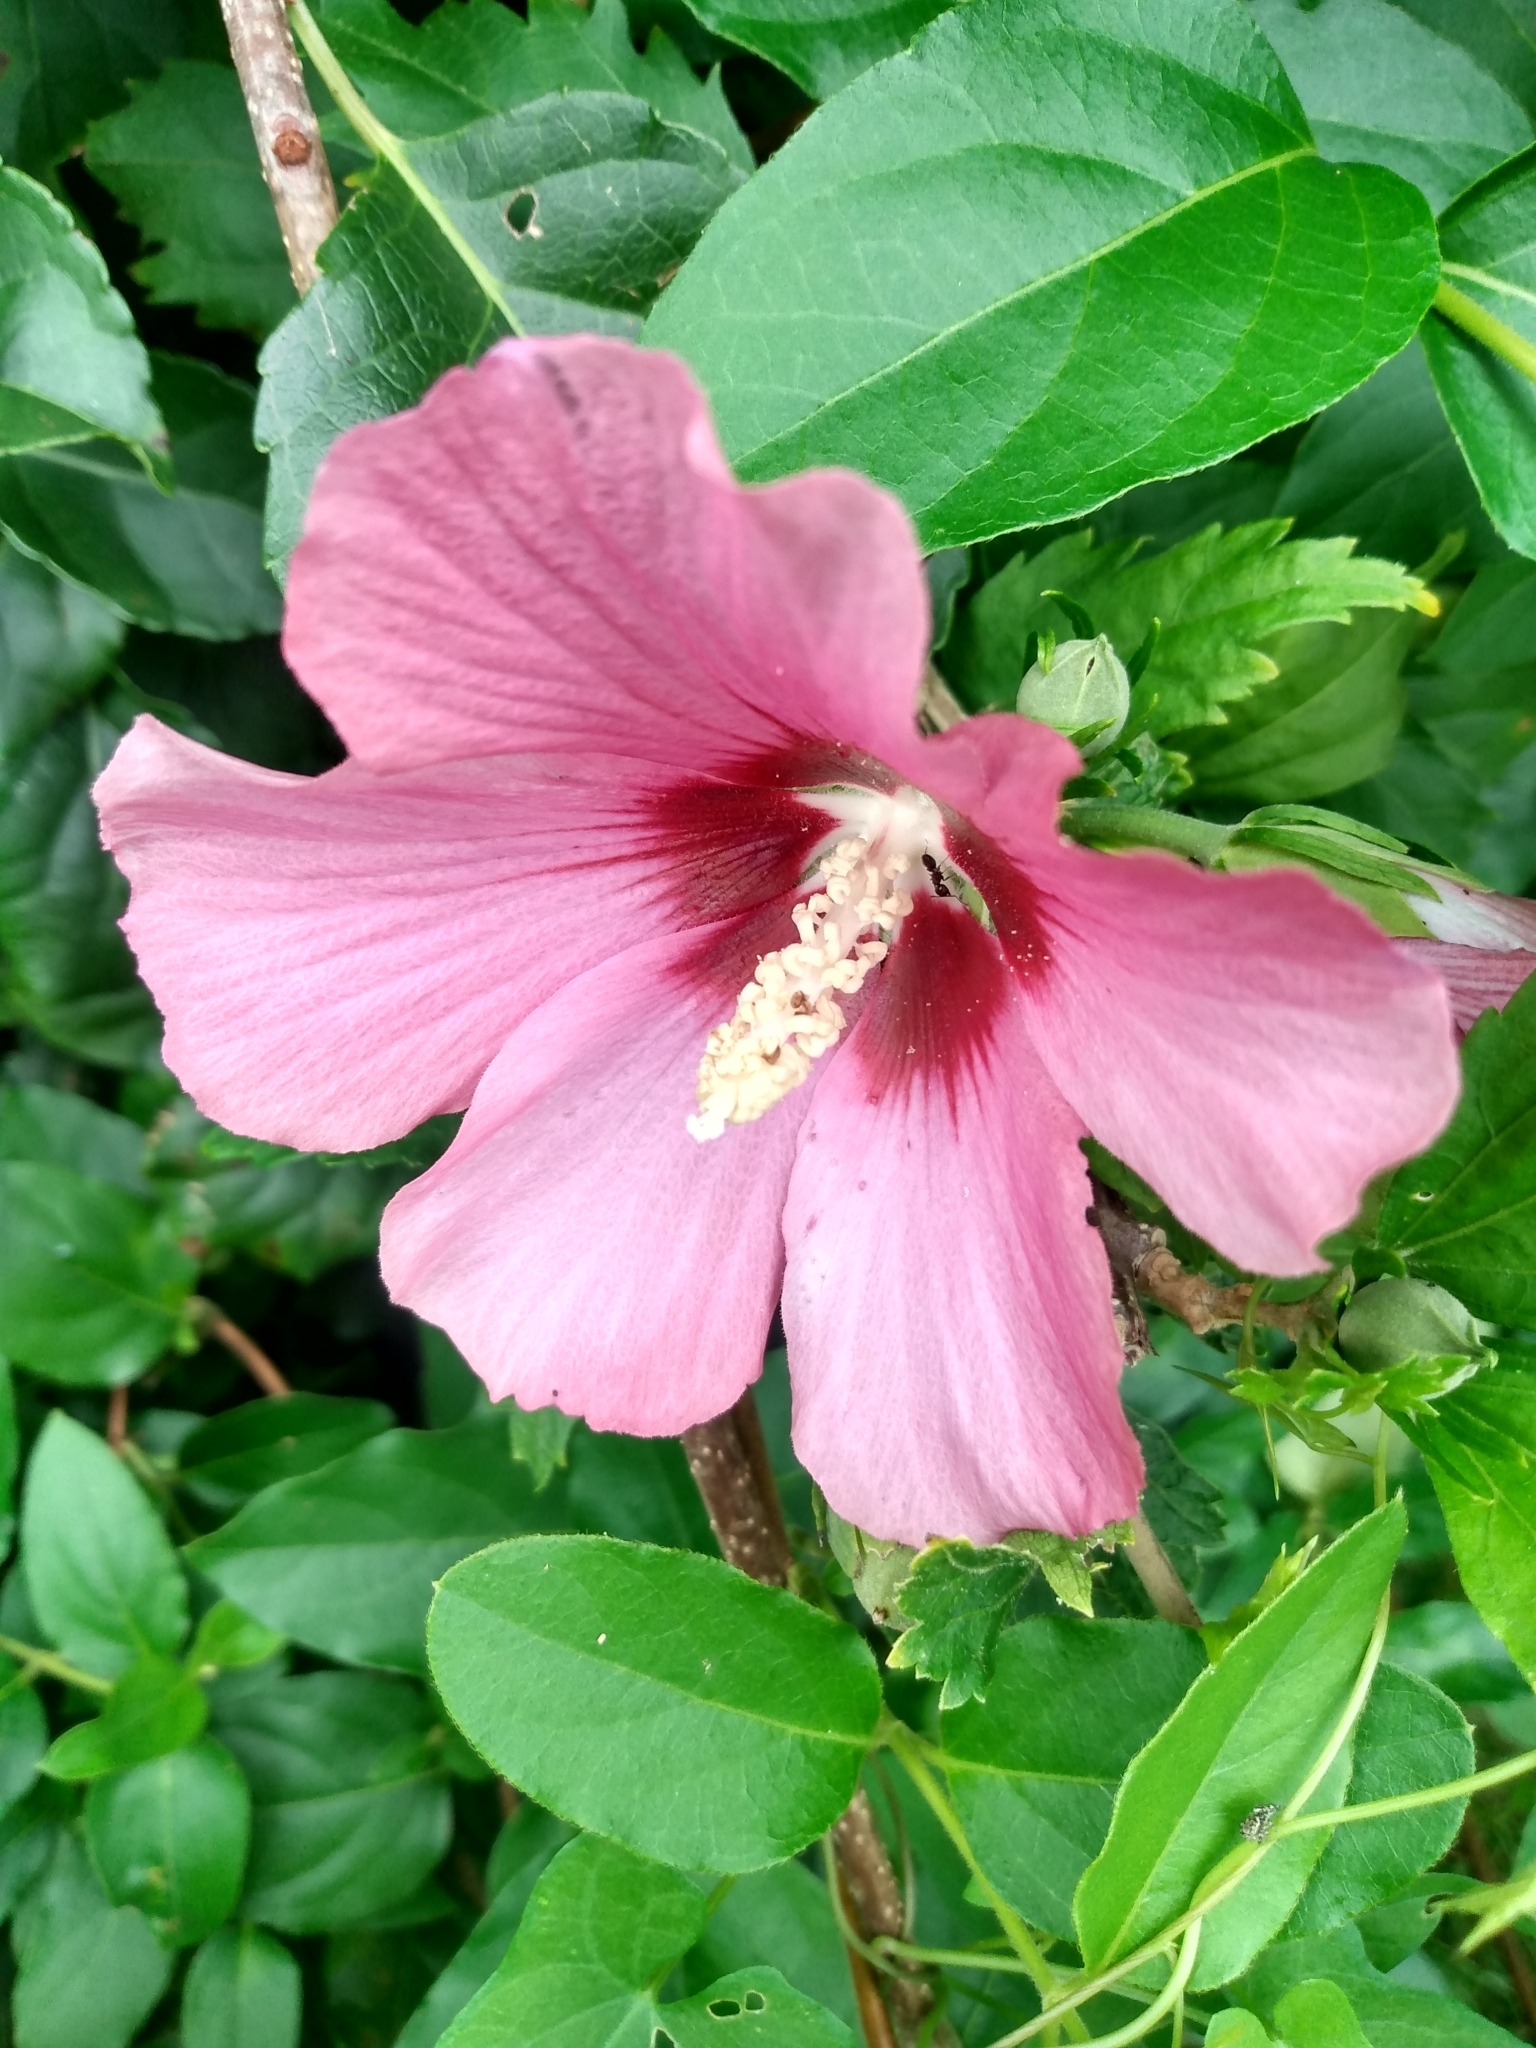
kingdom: Plantae
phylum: Tracheophyta
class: Magnoliopsida
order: Malvales
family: Malvaceae
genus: Hibiscus
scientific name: Hibiscus syriacus
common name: Syrian ketmia
